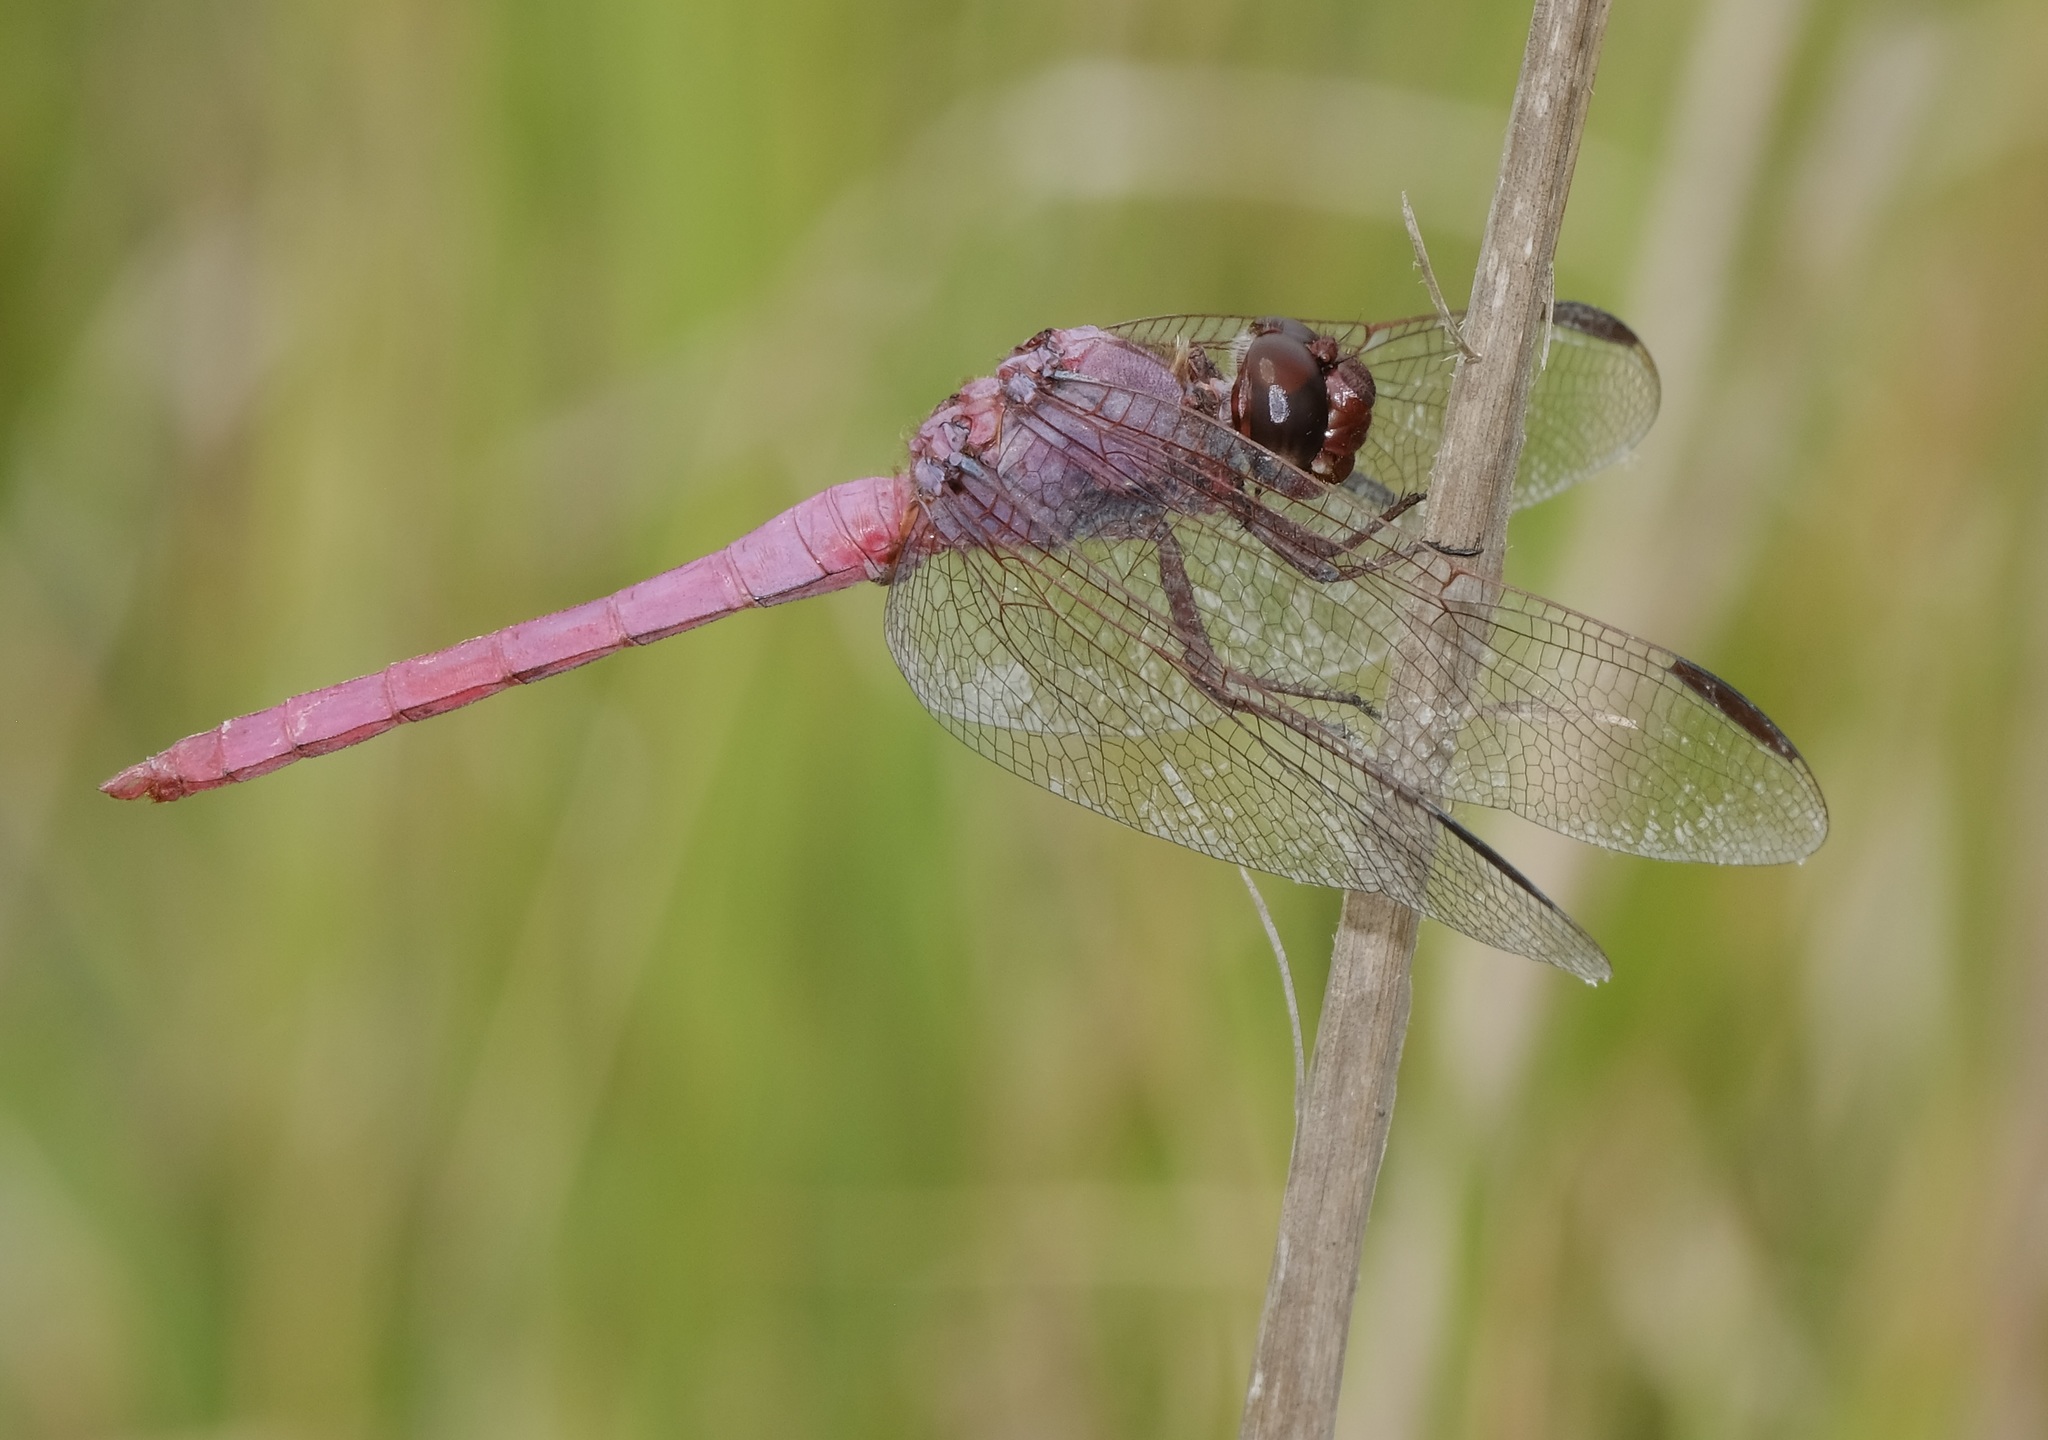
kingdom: Animalia
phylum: Arthropoda
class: Insecta
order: Odonata
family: Libellulidae
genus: Orthemis
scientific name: Orthemis ferruginea
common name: Roseate skimmer
